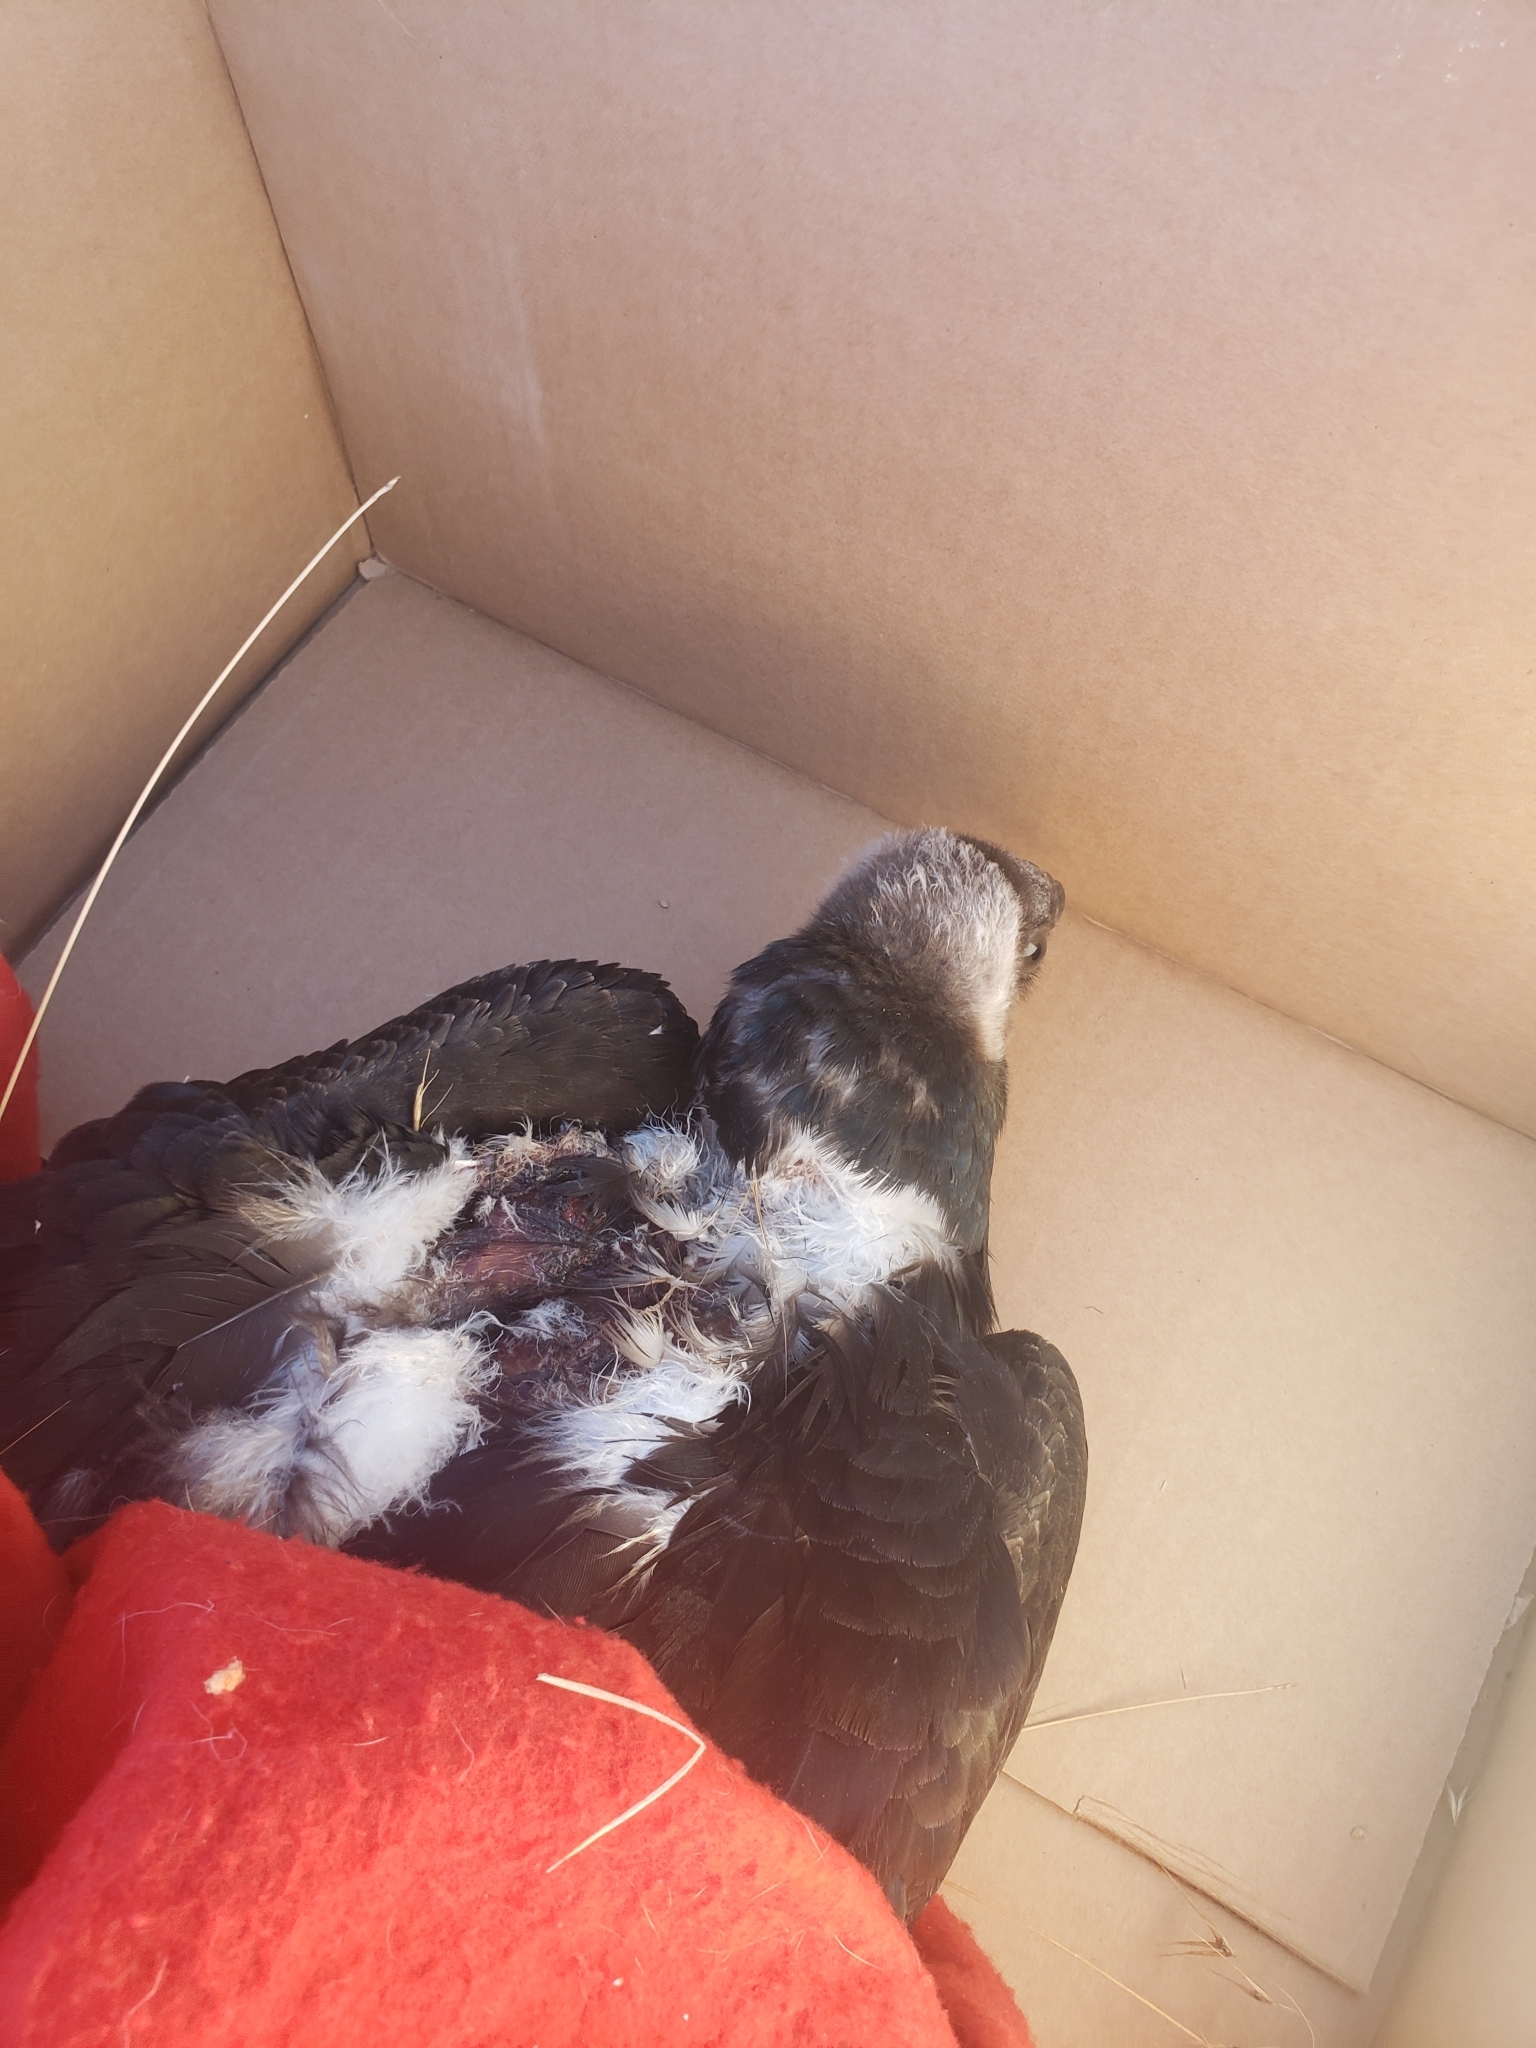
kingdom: Animalia
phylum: Chordata
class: Aves
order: Accipitriformes
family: Cathartidae
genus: Cathartes
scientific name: Cathartes aura
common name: Turkey vulture
